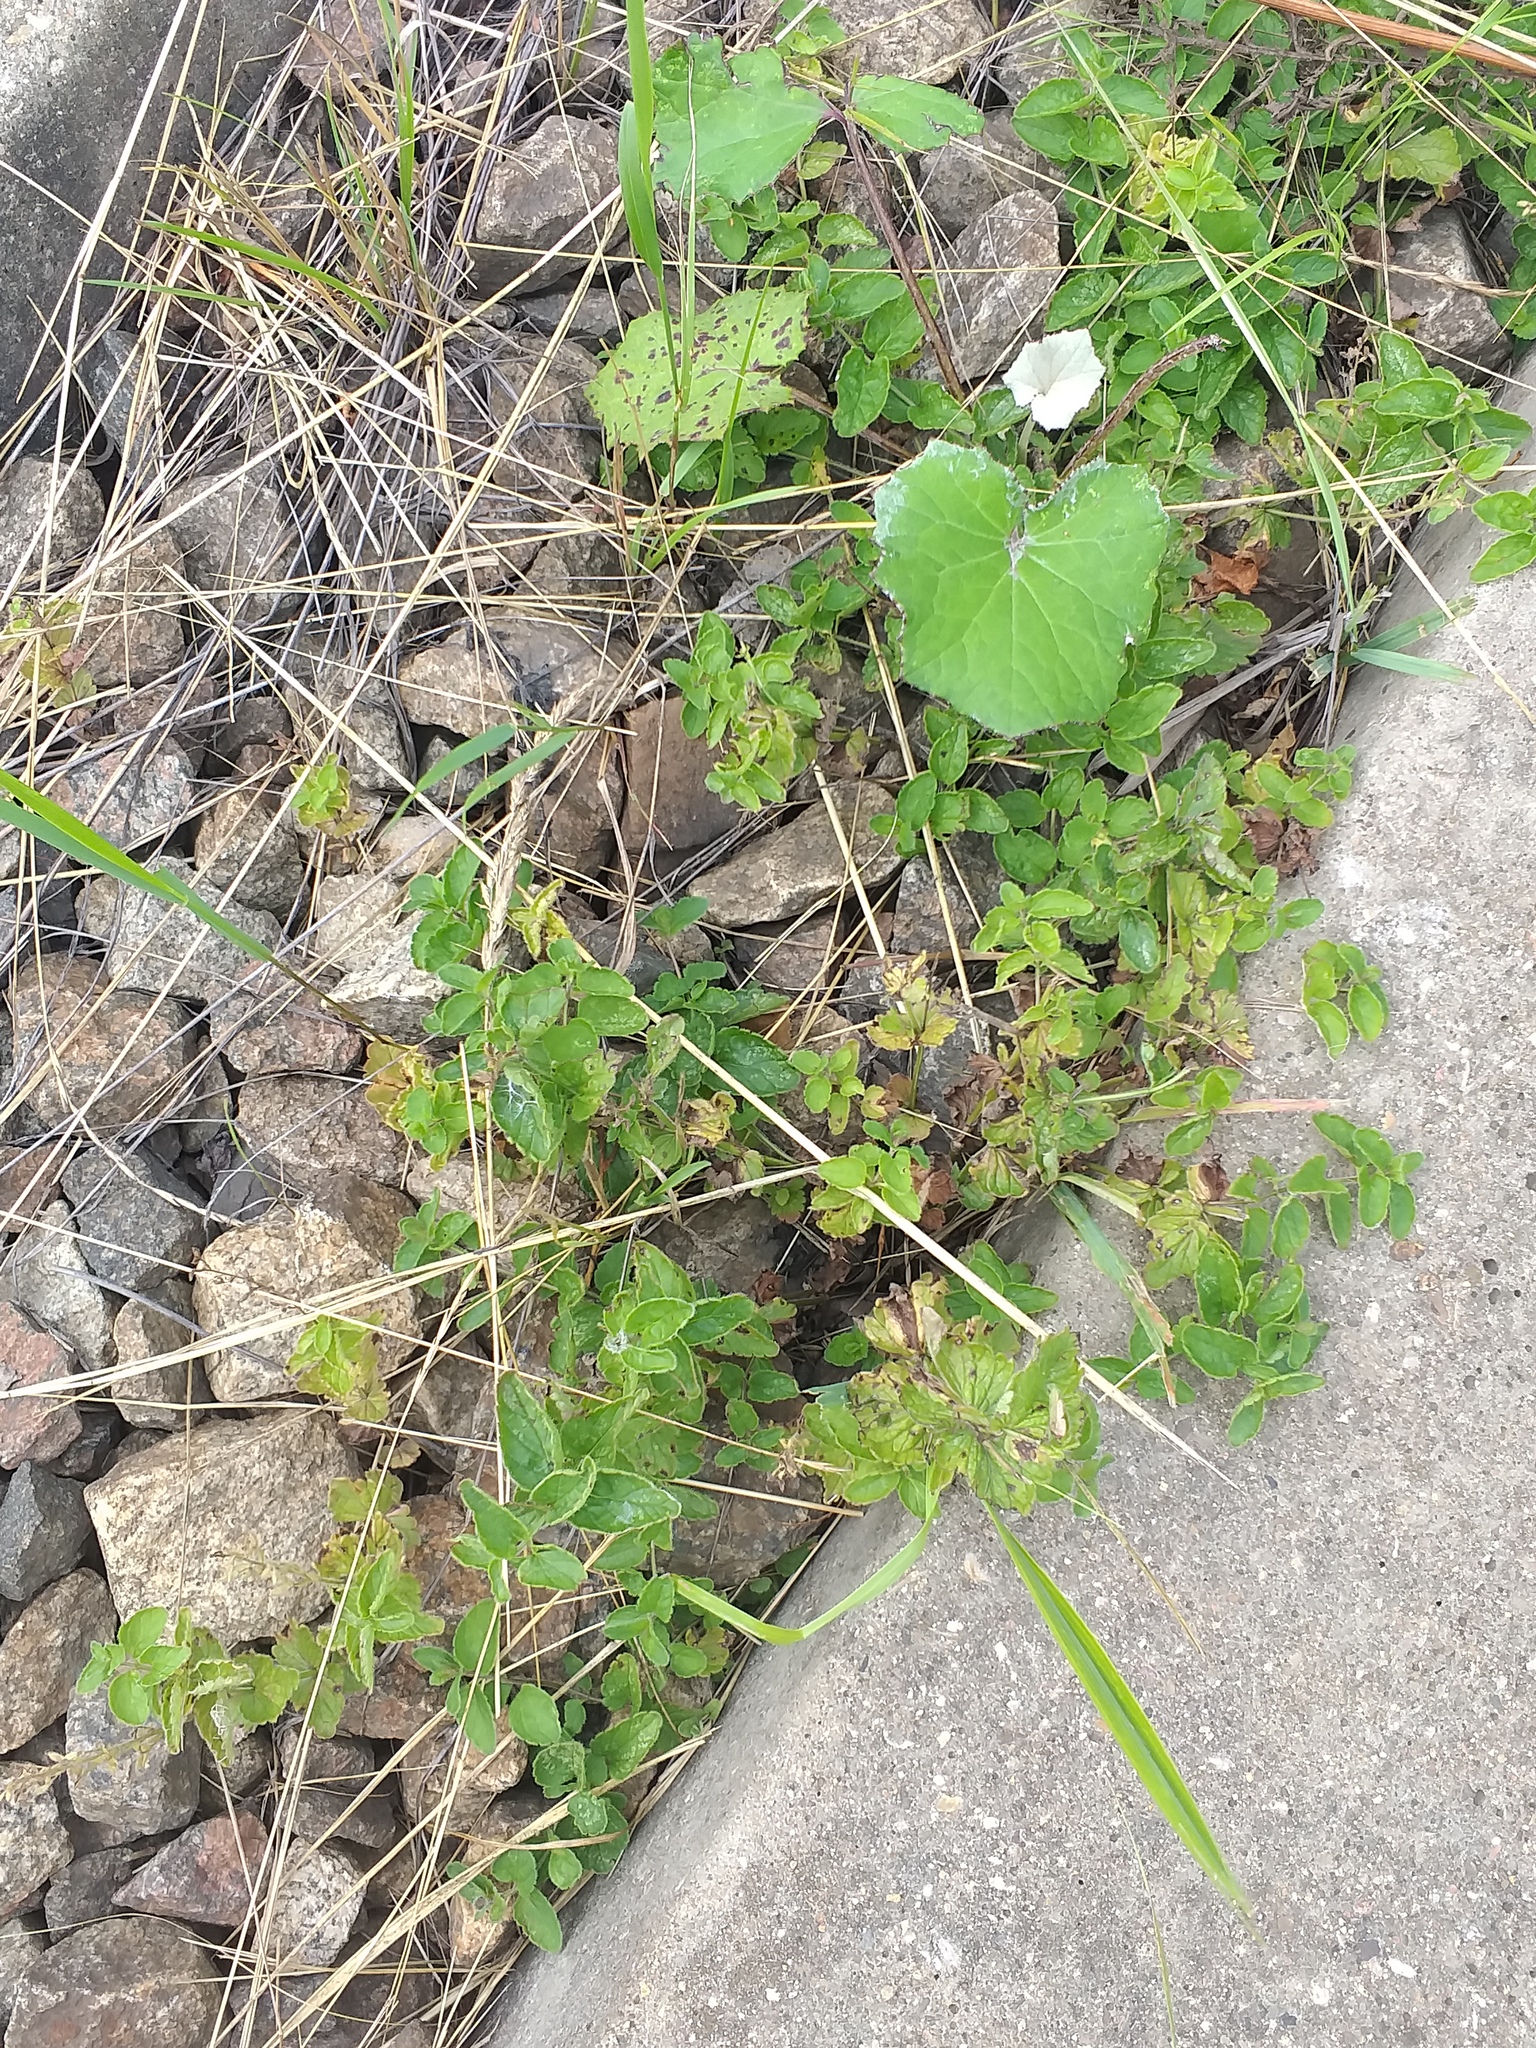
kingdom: Plantae
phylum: Tracheophyta
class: Magnoliopsida
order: Lamiales
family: Plantaginaceae
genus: Veronica
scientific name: Veronica chamaedrys
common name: Germander speedwell
